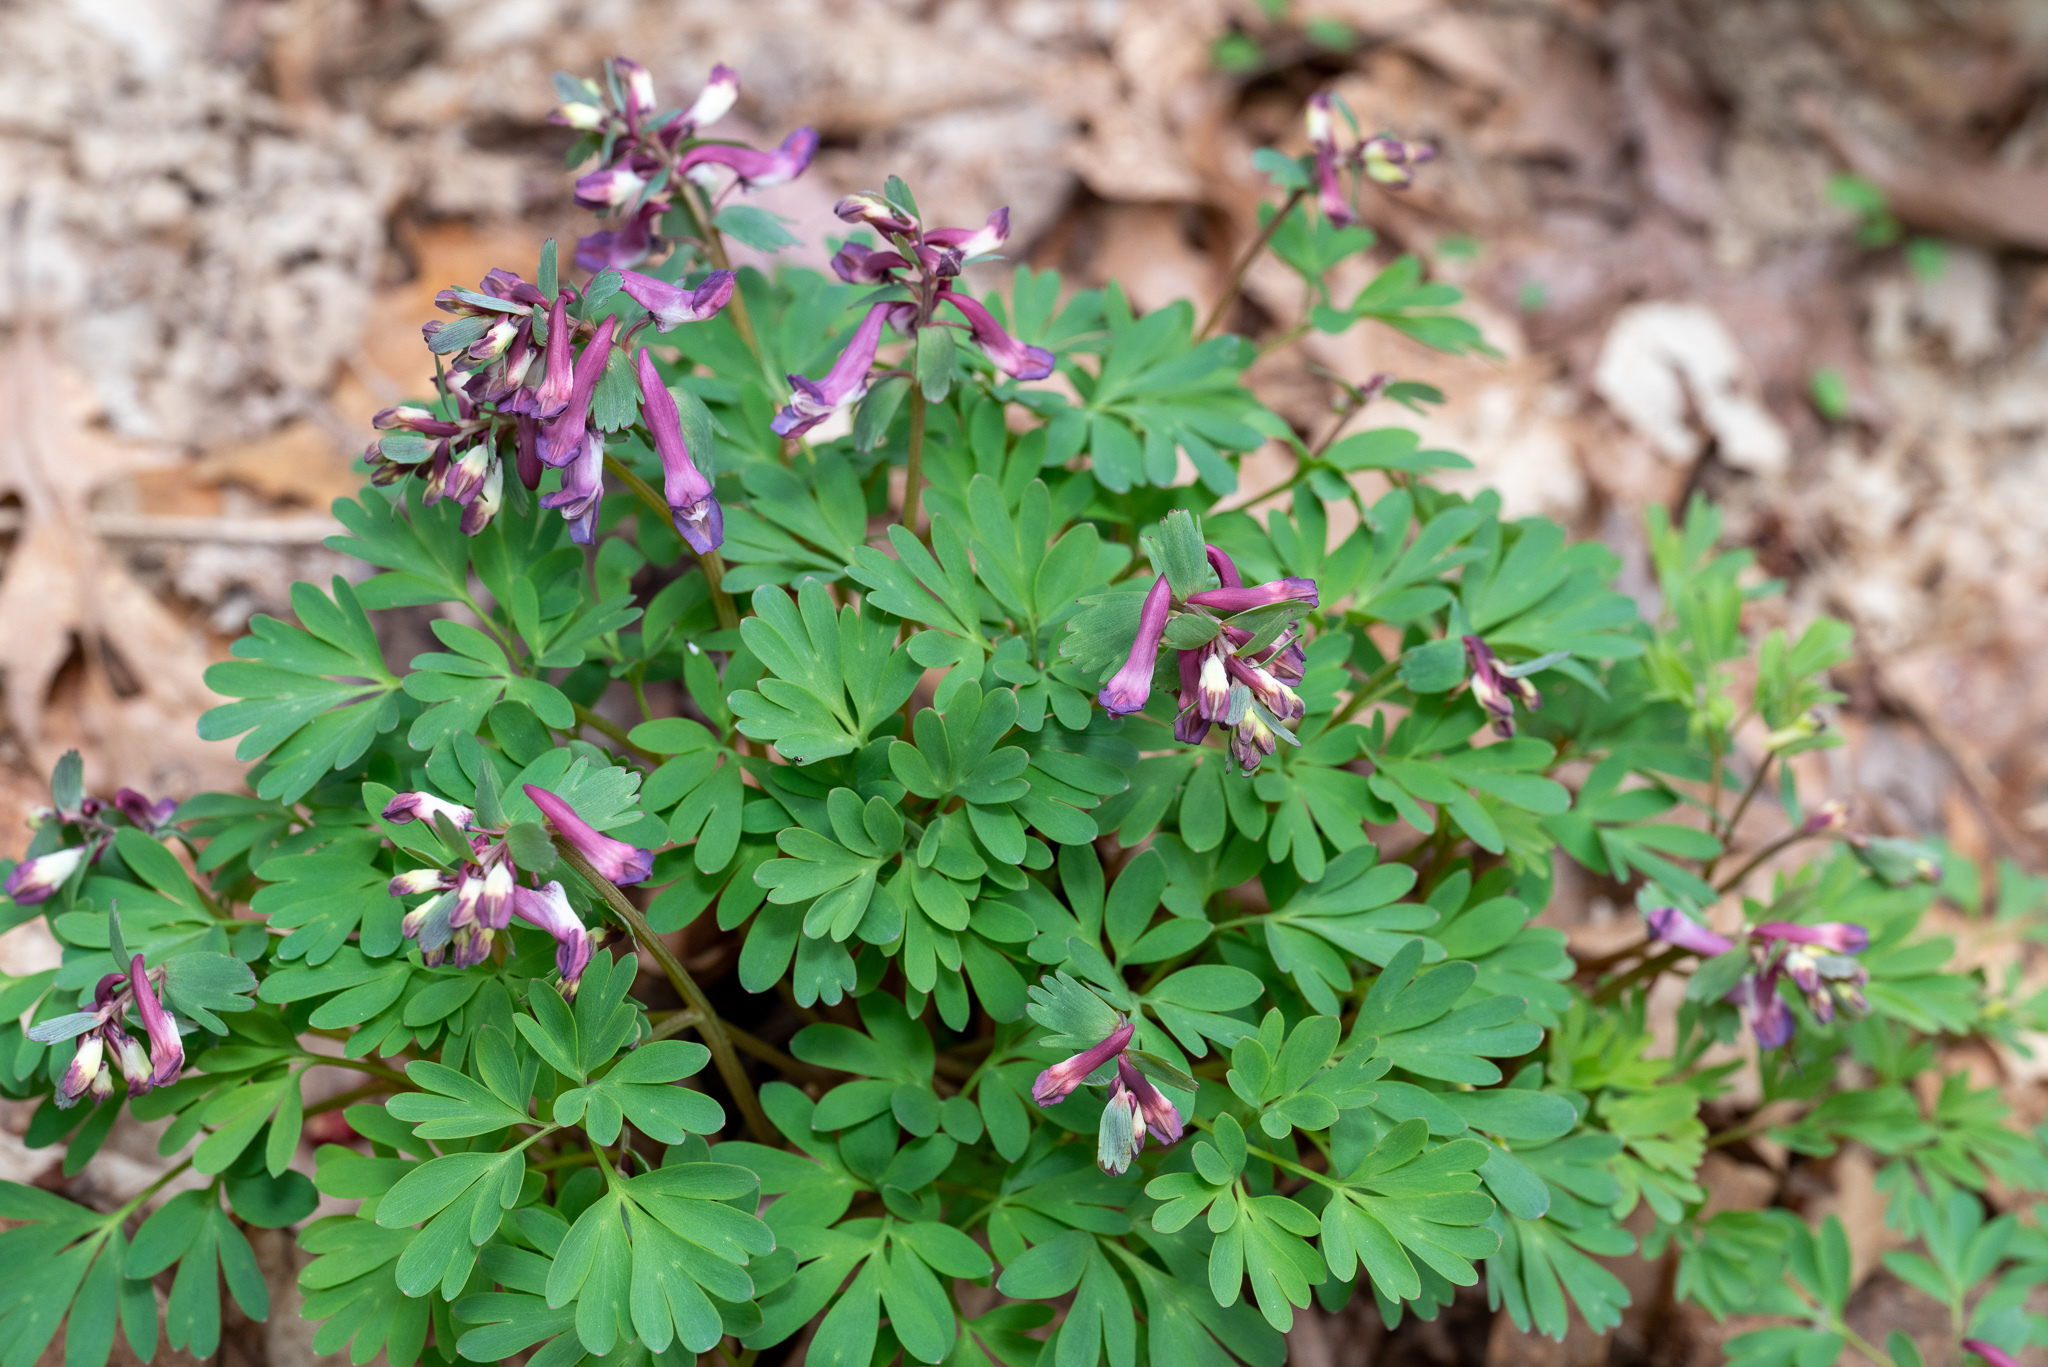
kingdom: Plantae
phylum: Tracheophyta
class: Magnoliopsida
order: Ranunculales
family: Papaveraceae
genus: Corydalis
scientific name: Corydalis solida
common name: Bird-in-a-bush
